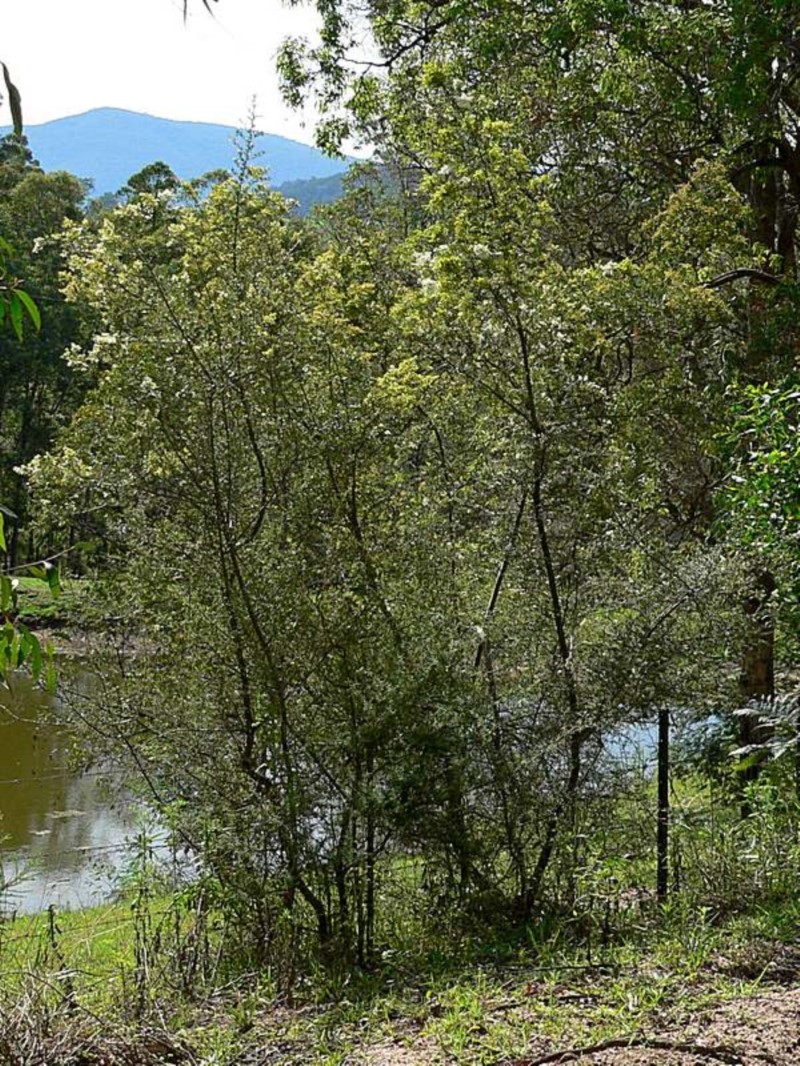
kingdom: Plantae
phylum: Tracheophyta
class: Magnoliopsida
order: Apiales
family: Pittosporaceae
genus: Bursaria
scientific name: Bursaria spinosa
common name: Australian blackthorn
